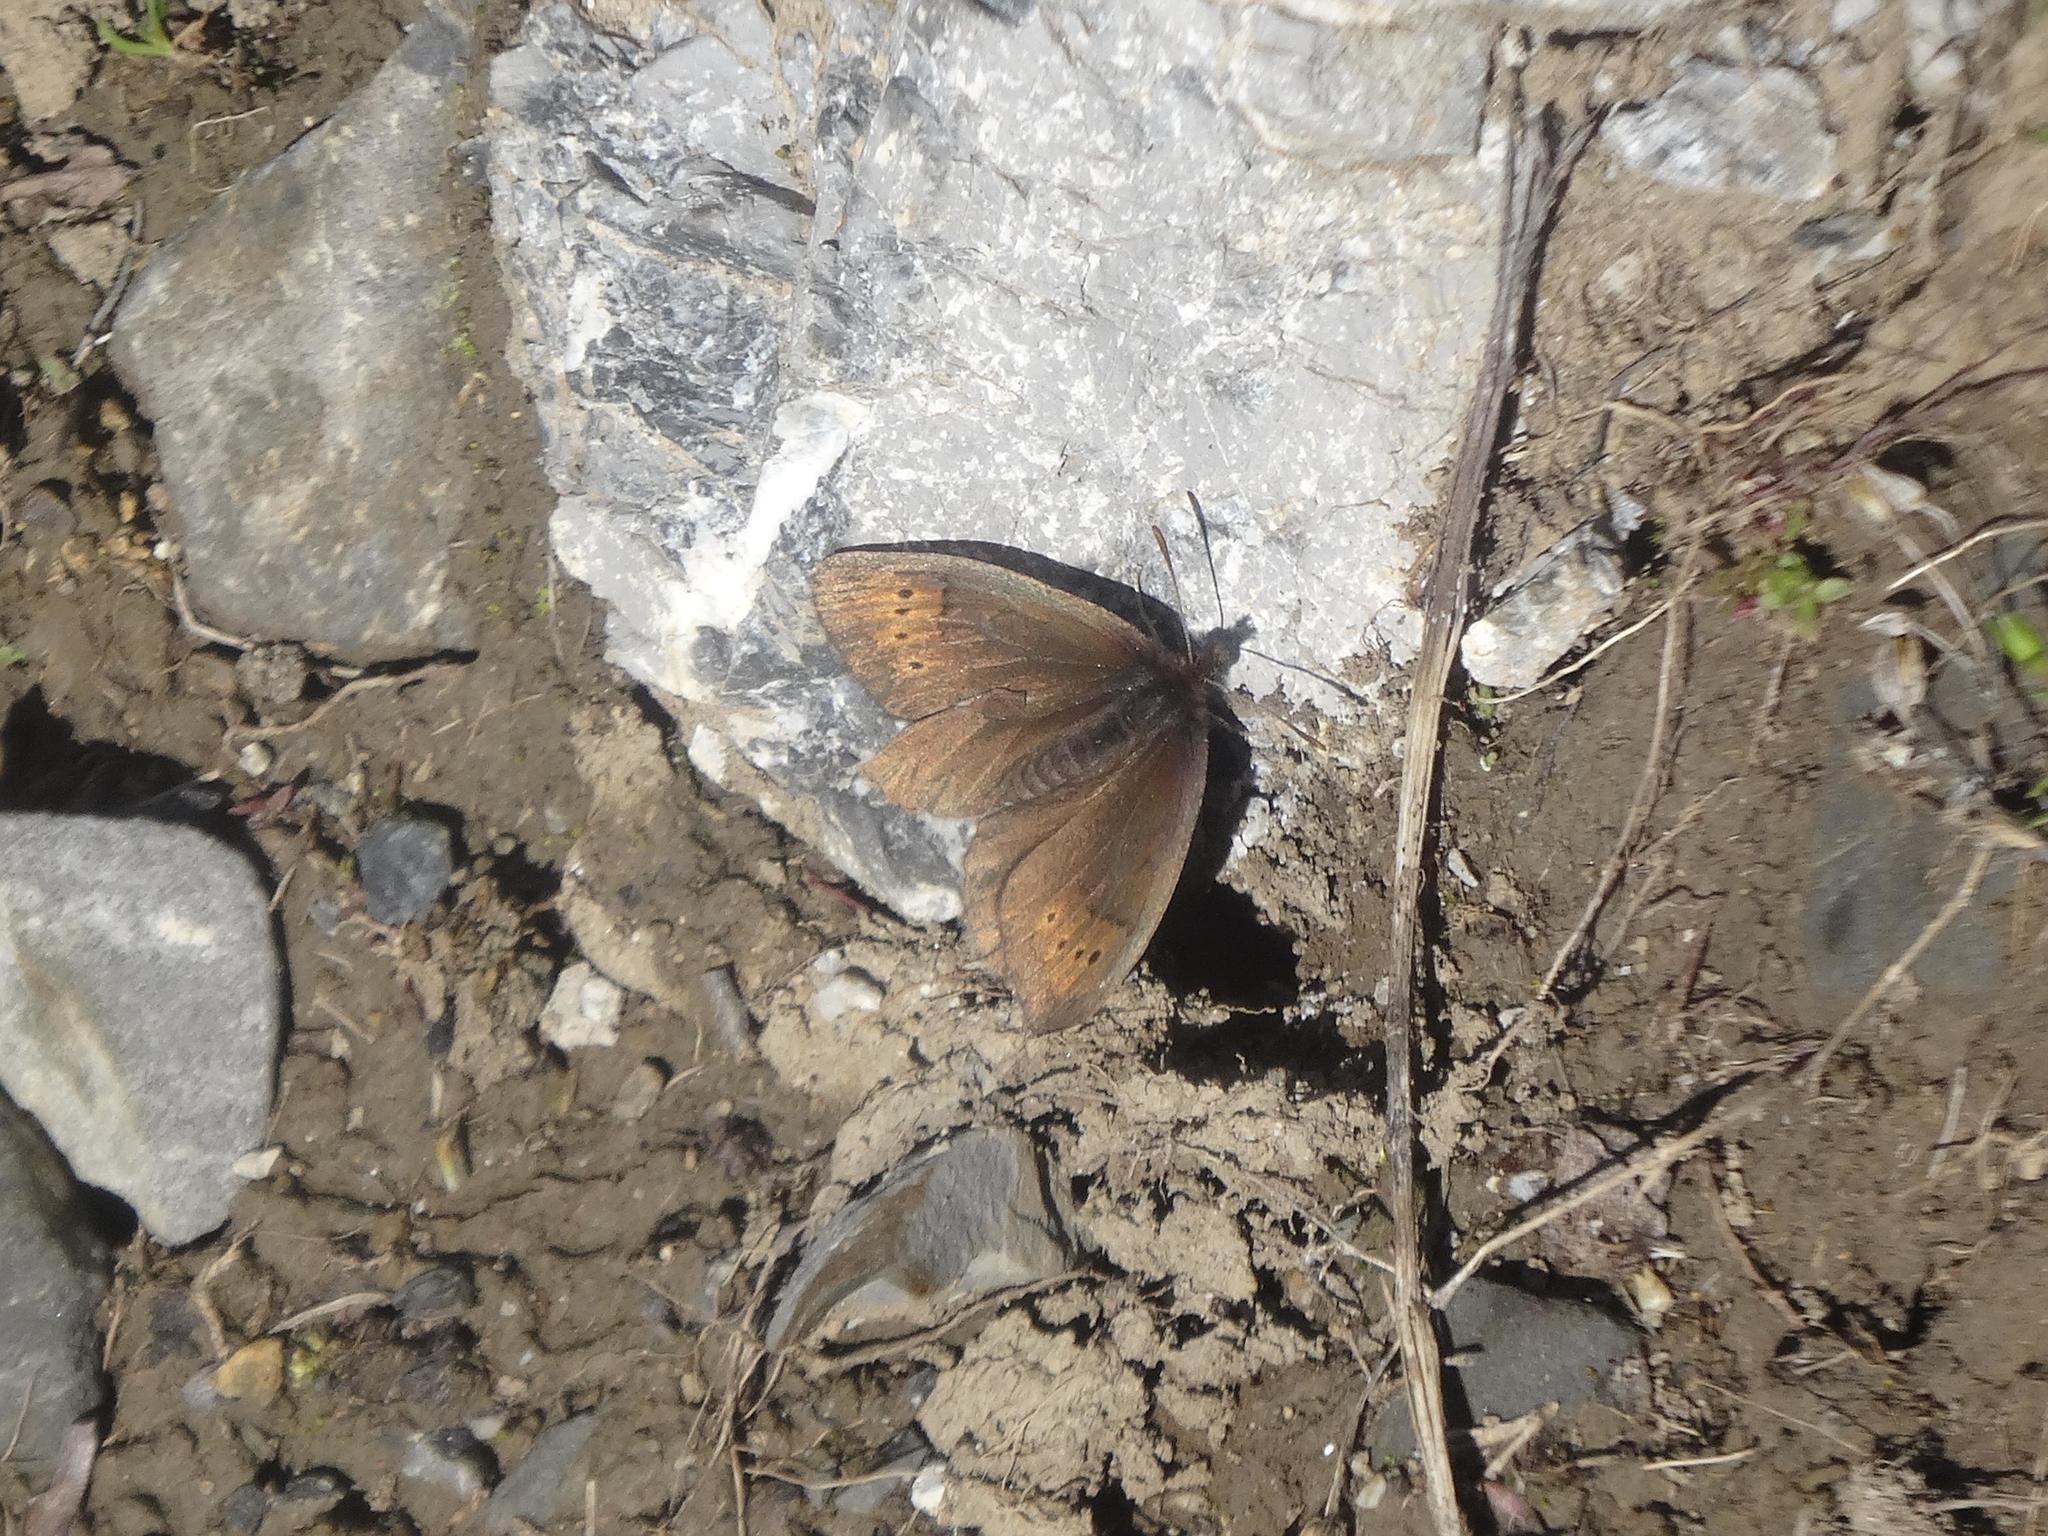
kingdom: Animalia
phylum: Arthropoda
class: Insecta
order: Lepidoptera
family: Nymphalidae
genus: Erebia
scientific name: Erebia pandrose
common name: Dewy ringlet
